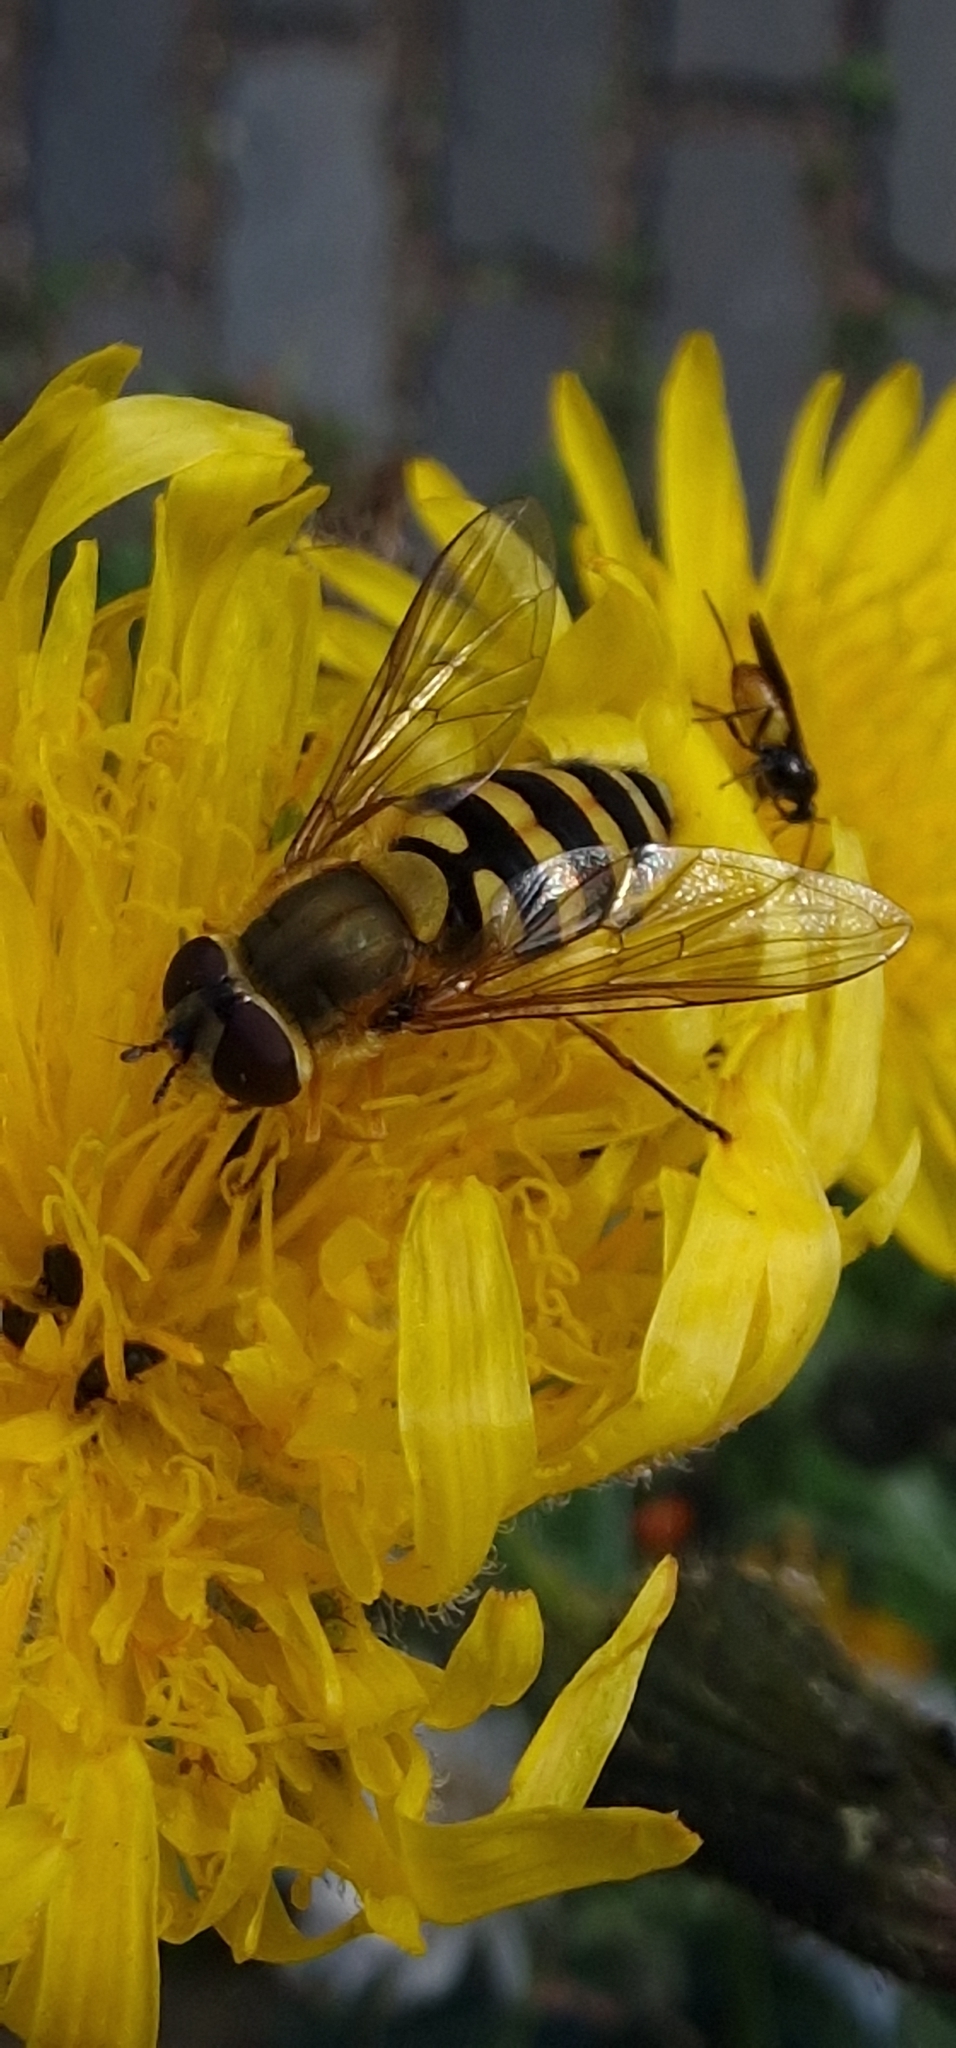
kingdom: Animalia
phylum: Arthropoda
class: Insecta
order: Diptera
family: Syrphidae
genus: Syrphus
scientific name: Syrphus
